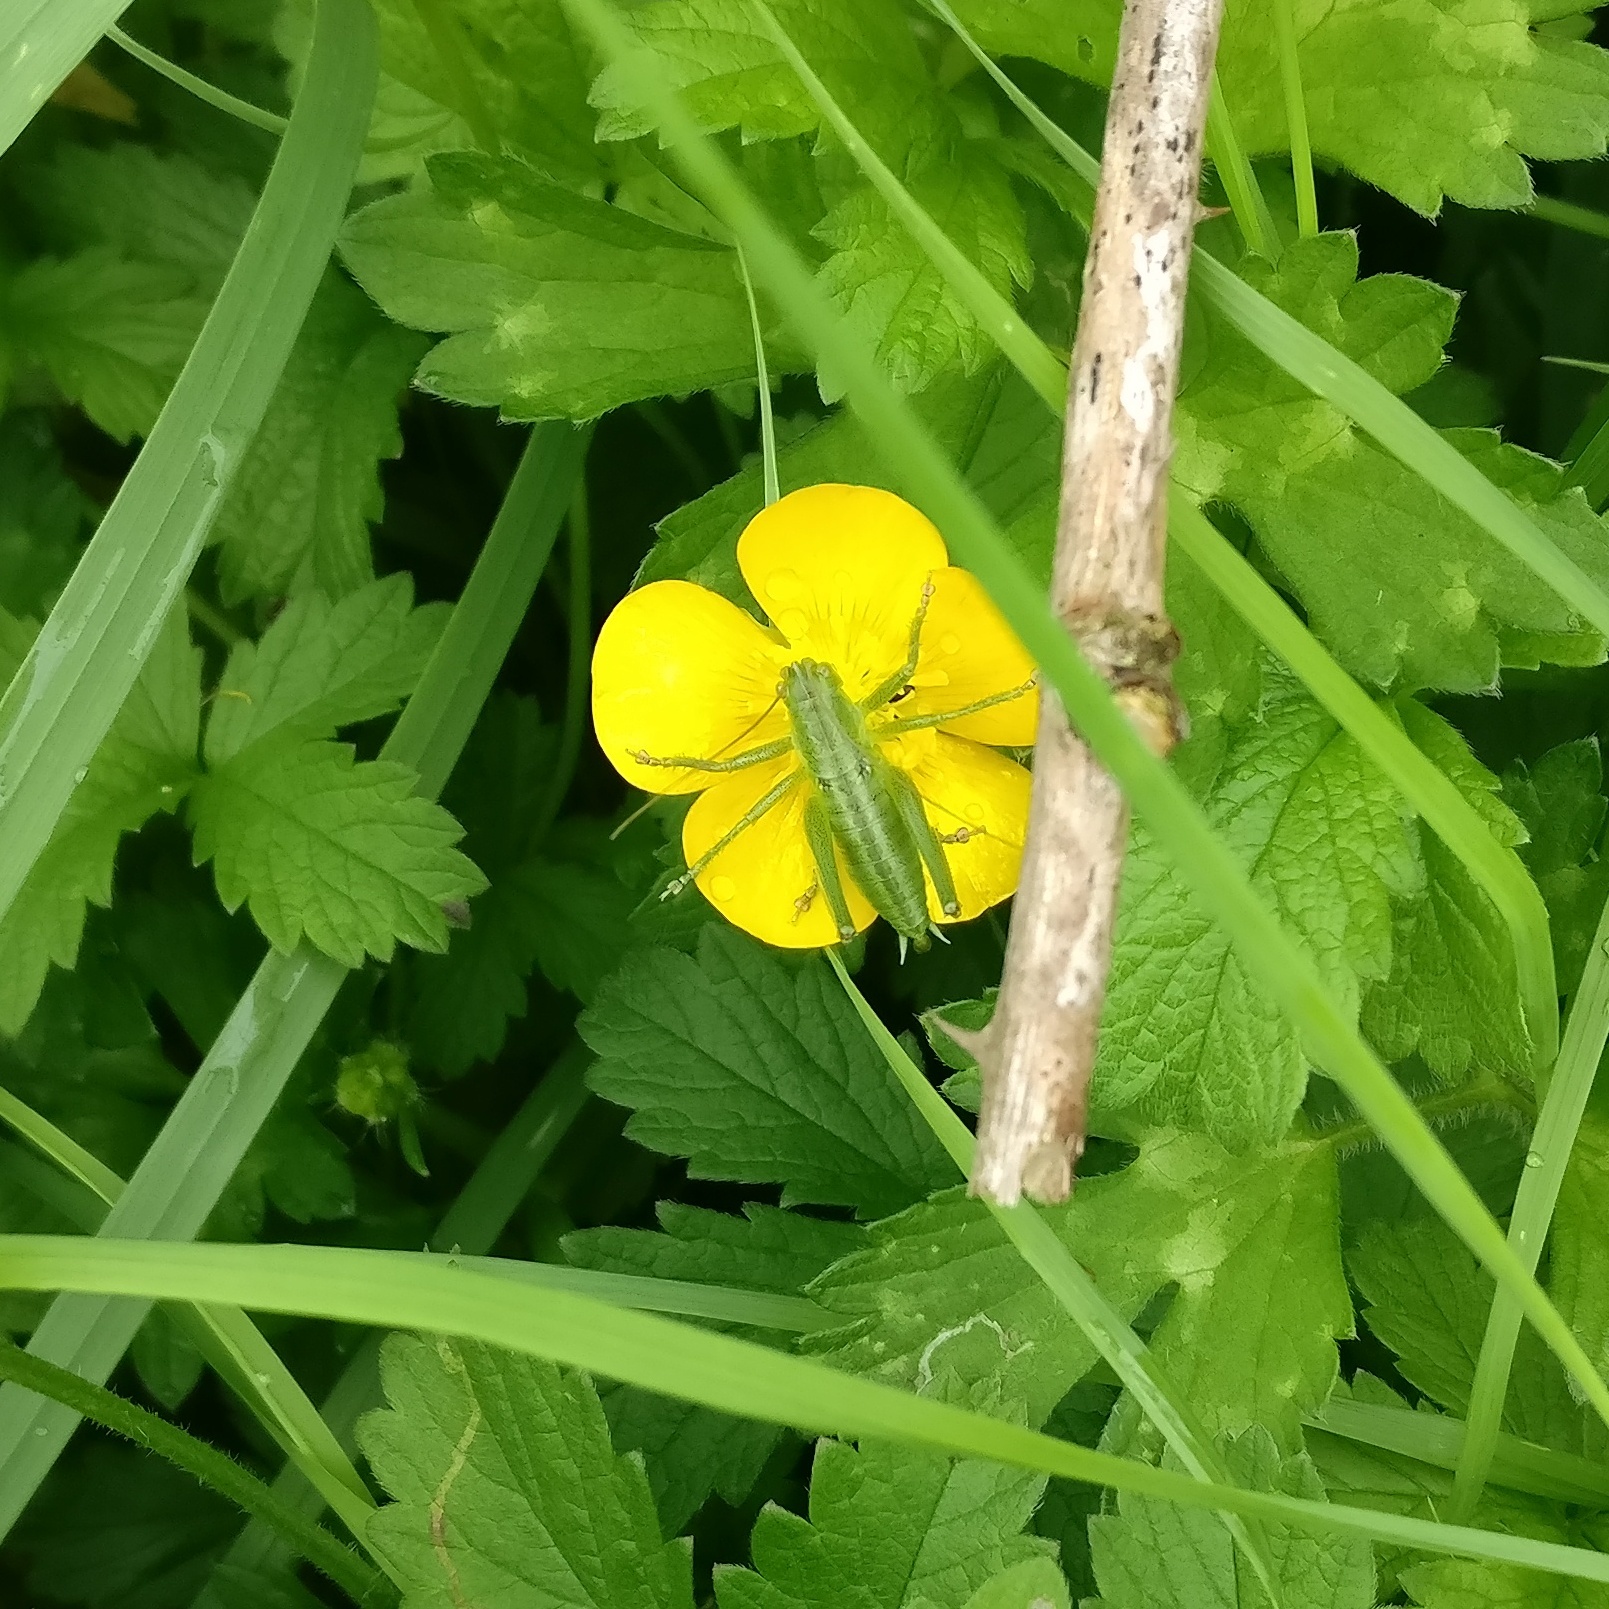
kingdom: Animalia
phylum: Arthropoda
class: Insecta
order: Orthoptera
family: Tettigoniidae
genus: Tettigonia
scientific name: Tettigonia viridissima
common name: Great green bush-cricket
